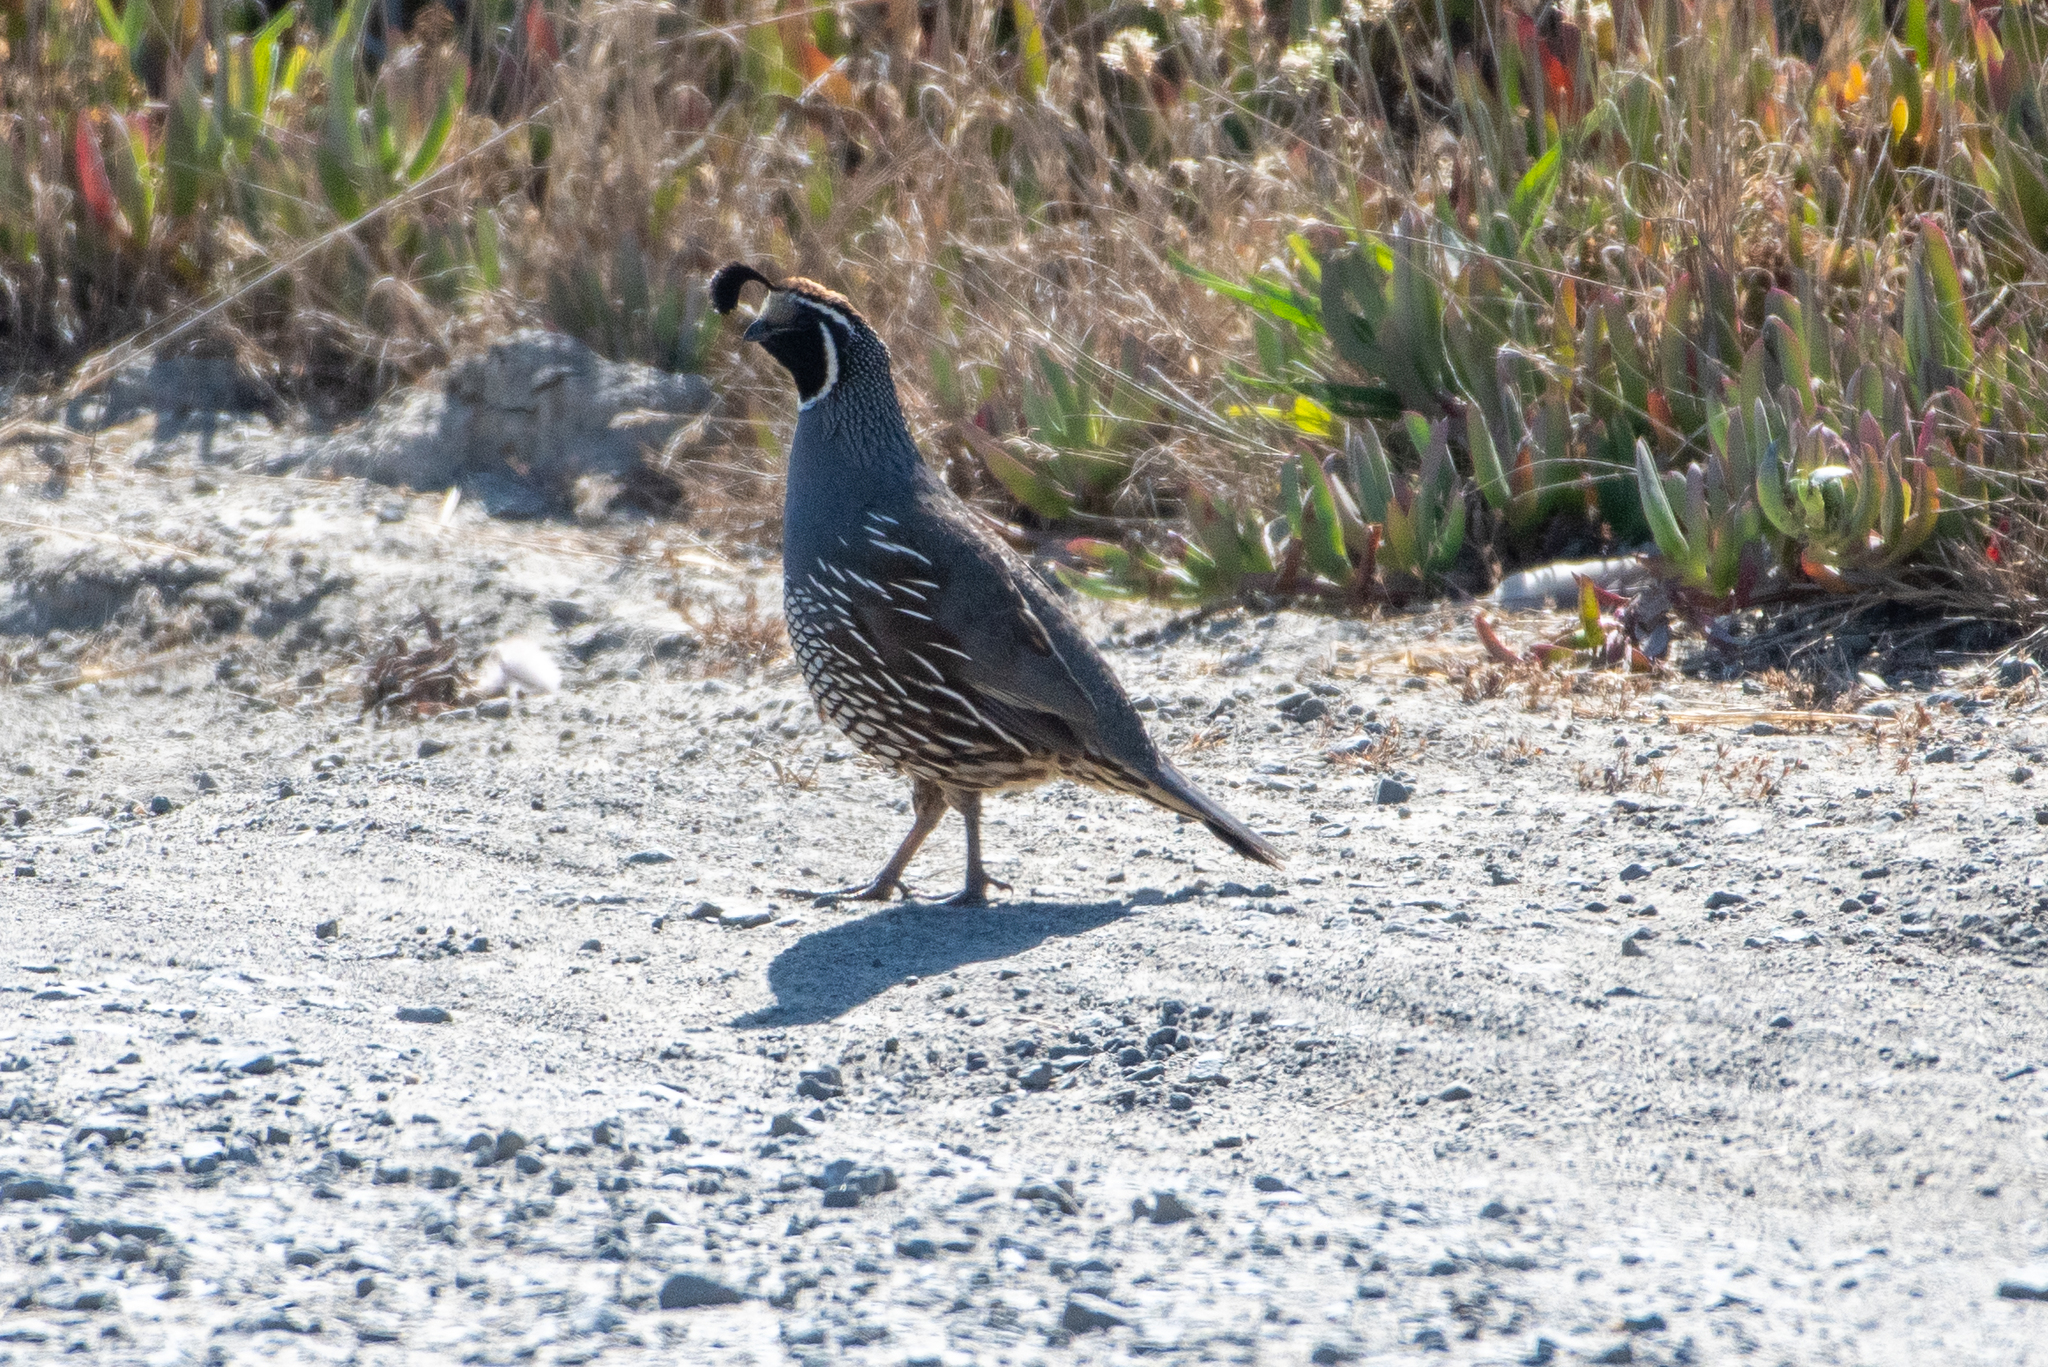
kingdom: Animalia
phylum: Chordata
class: Aves
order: Galliformes
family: Odontophoridae
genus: Callipepla
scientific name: Callipepla californica
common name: California quail
